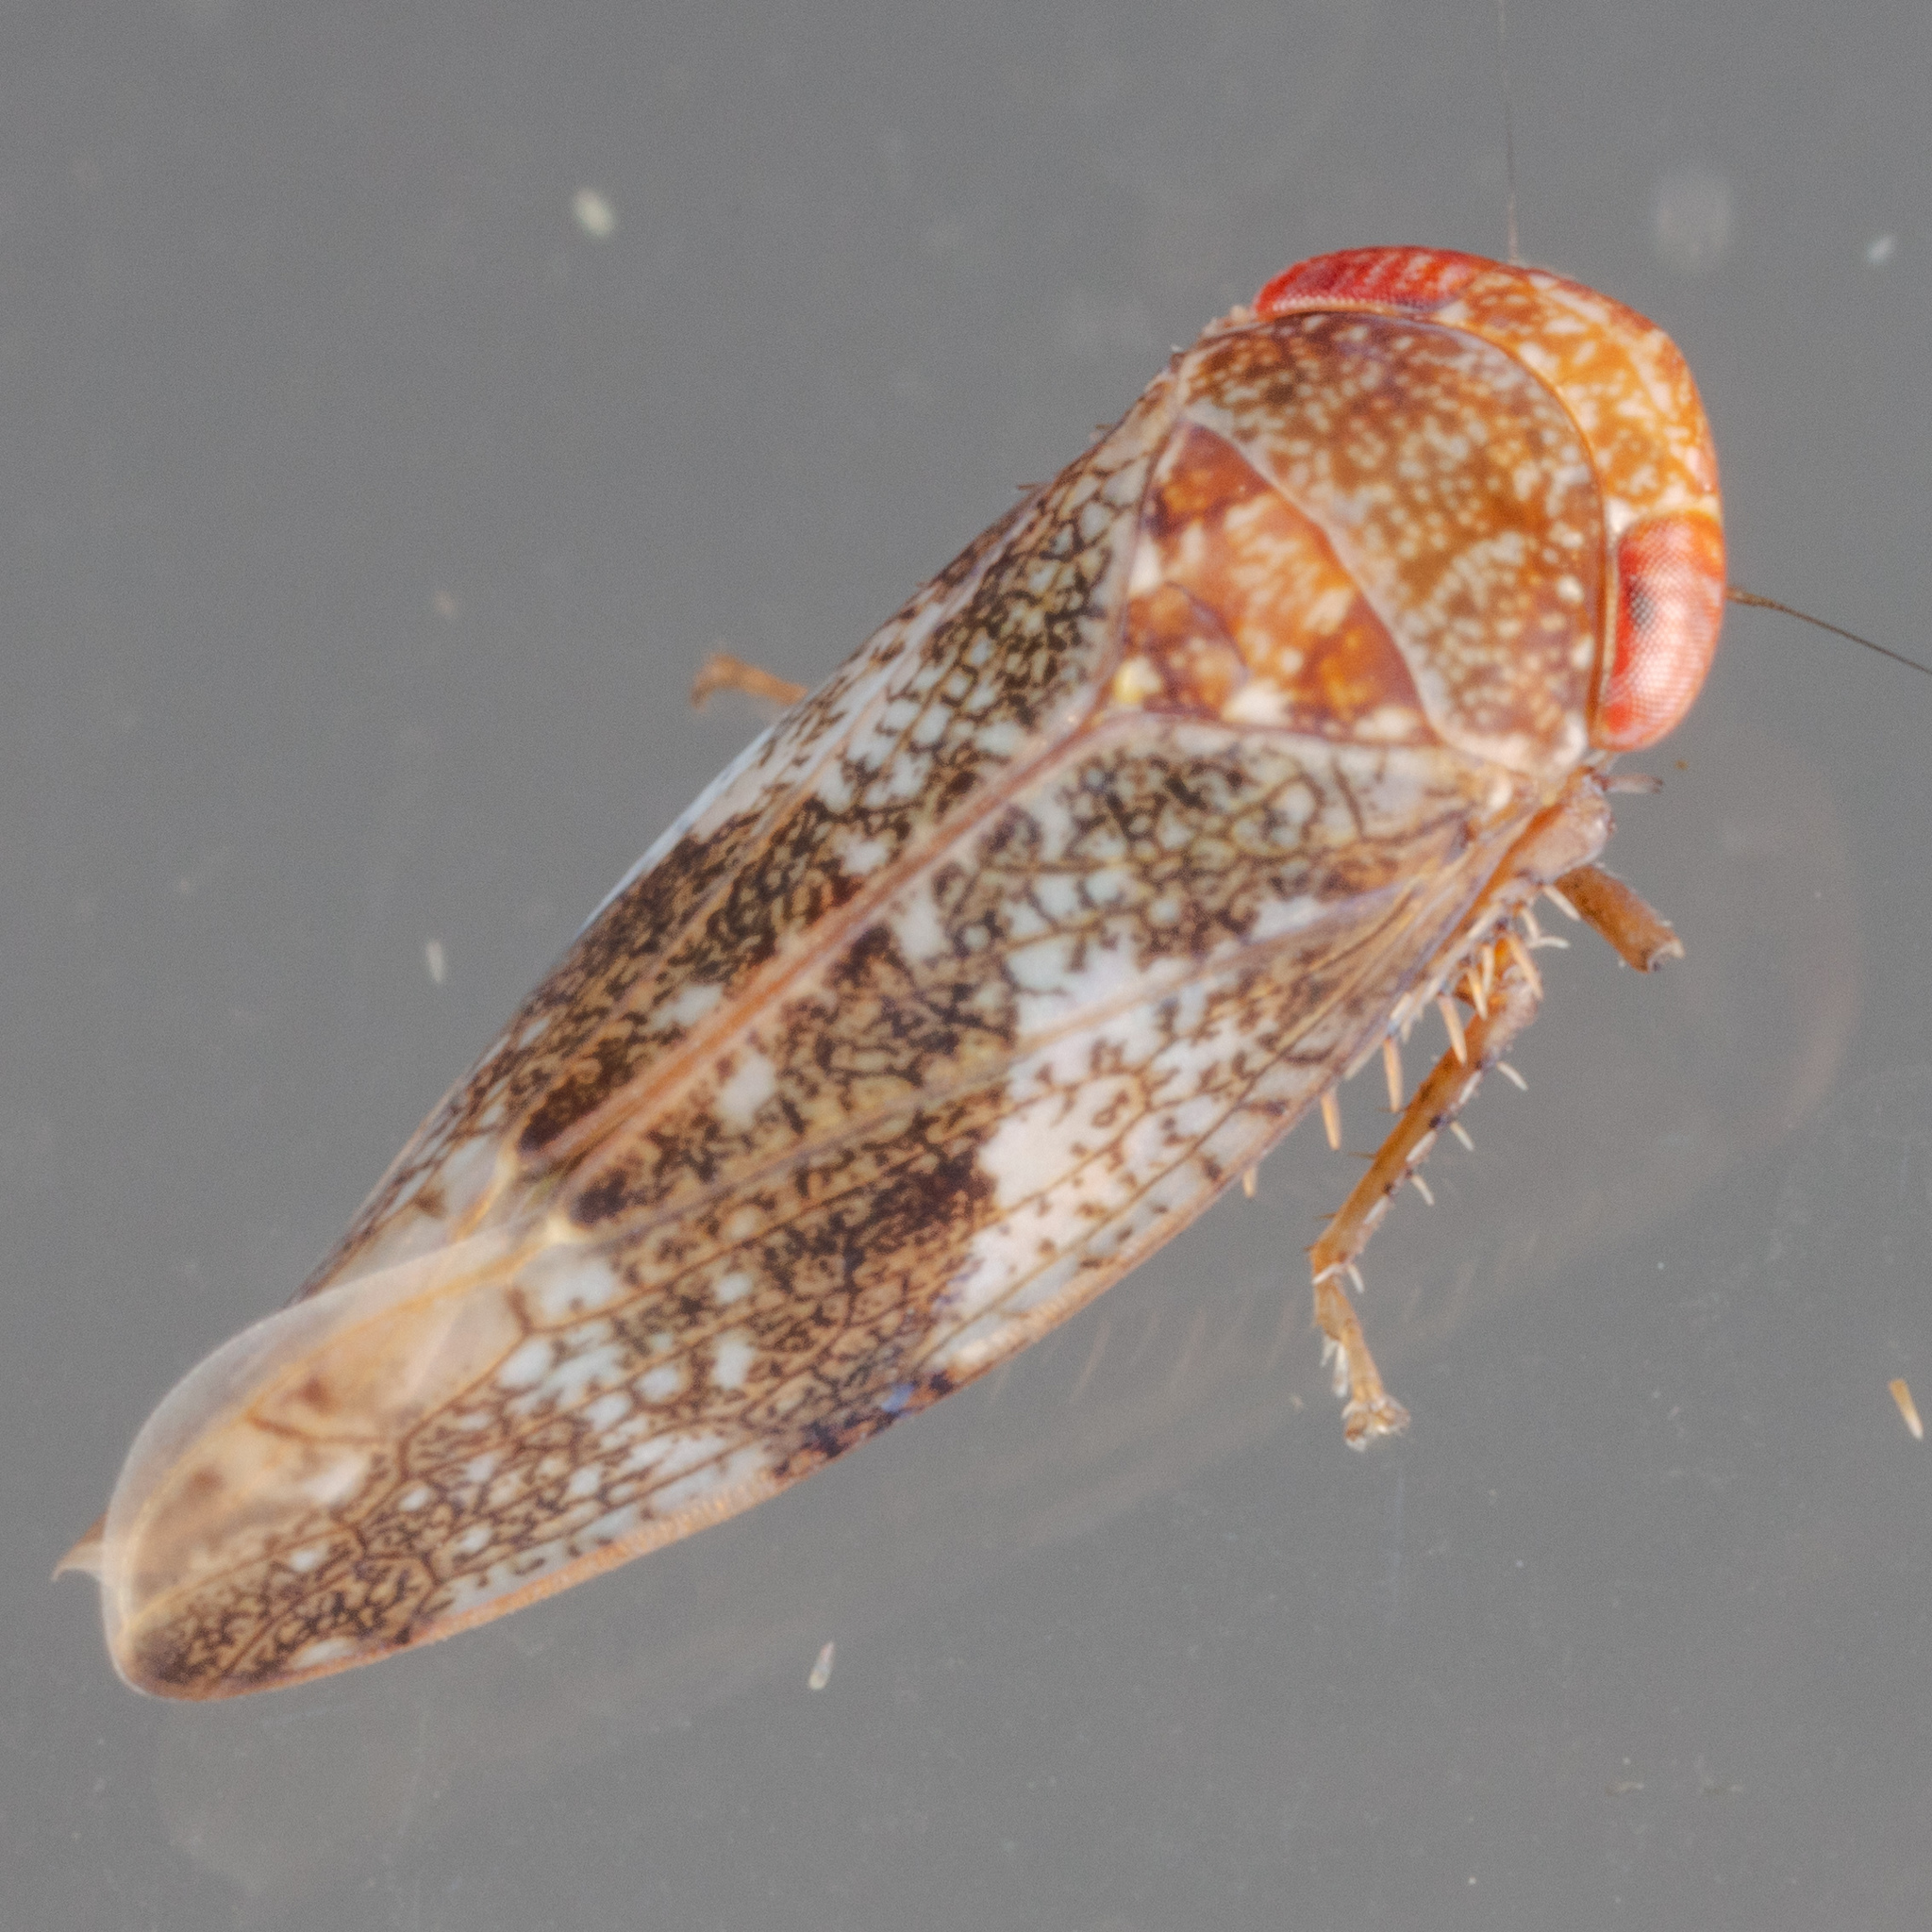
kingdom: Animalia
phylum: Arthropoda
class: Insecta
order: Hemiptera
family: Cicadellidae
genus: Norvellina
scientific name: Norvellina helenae
